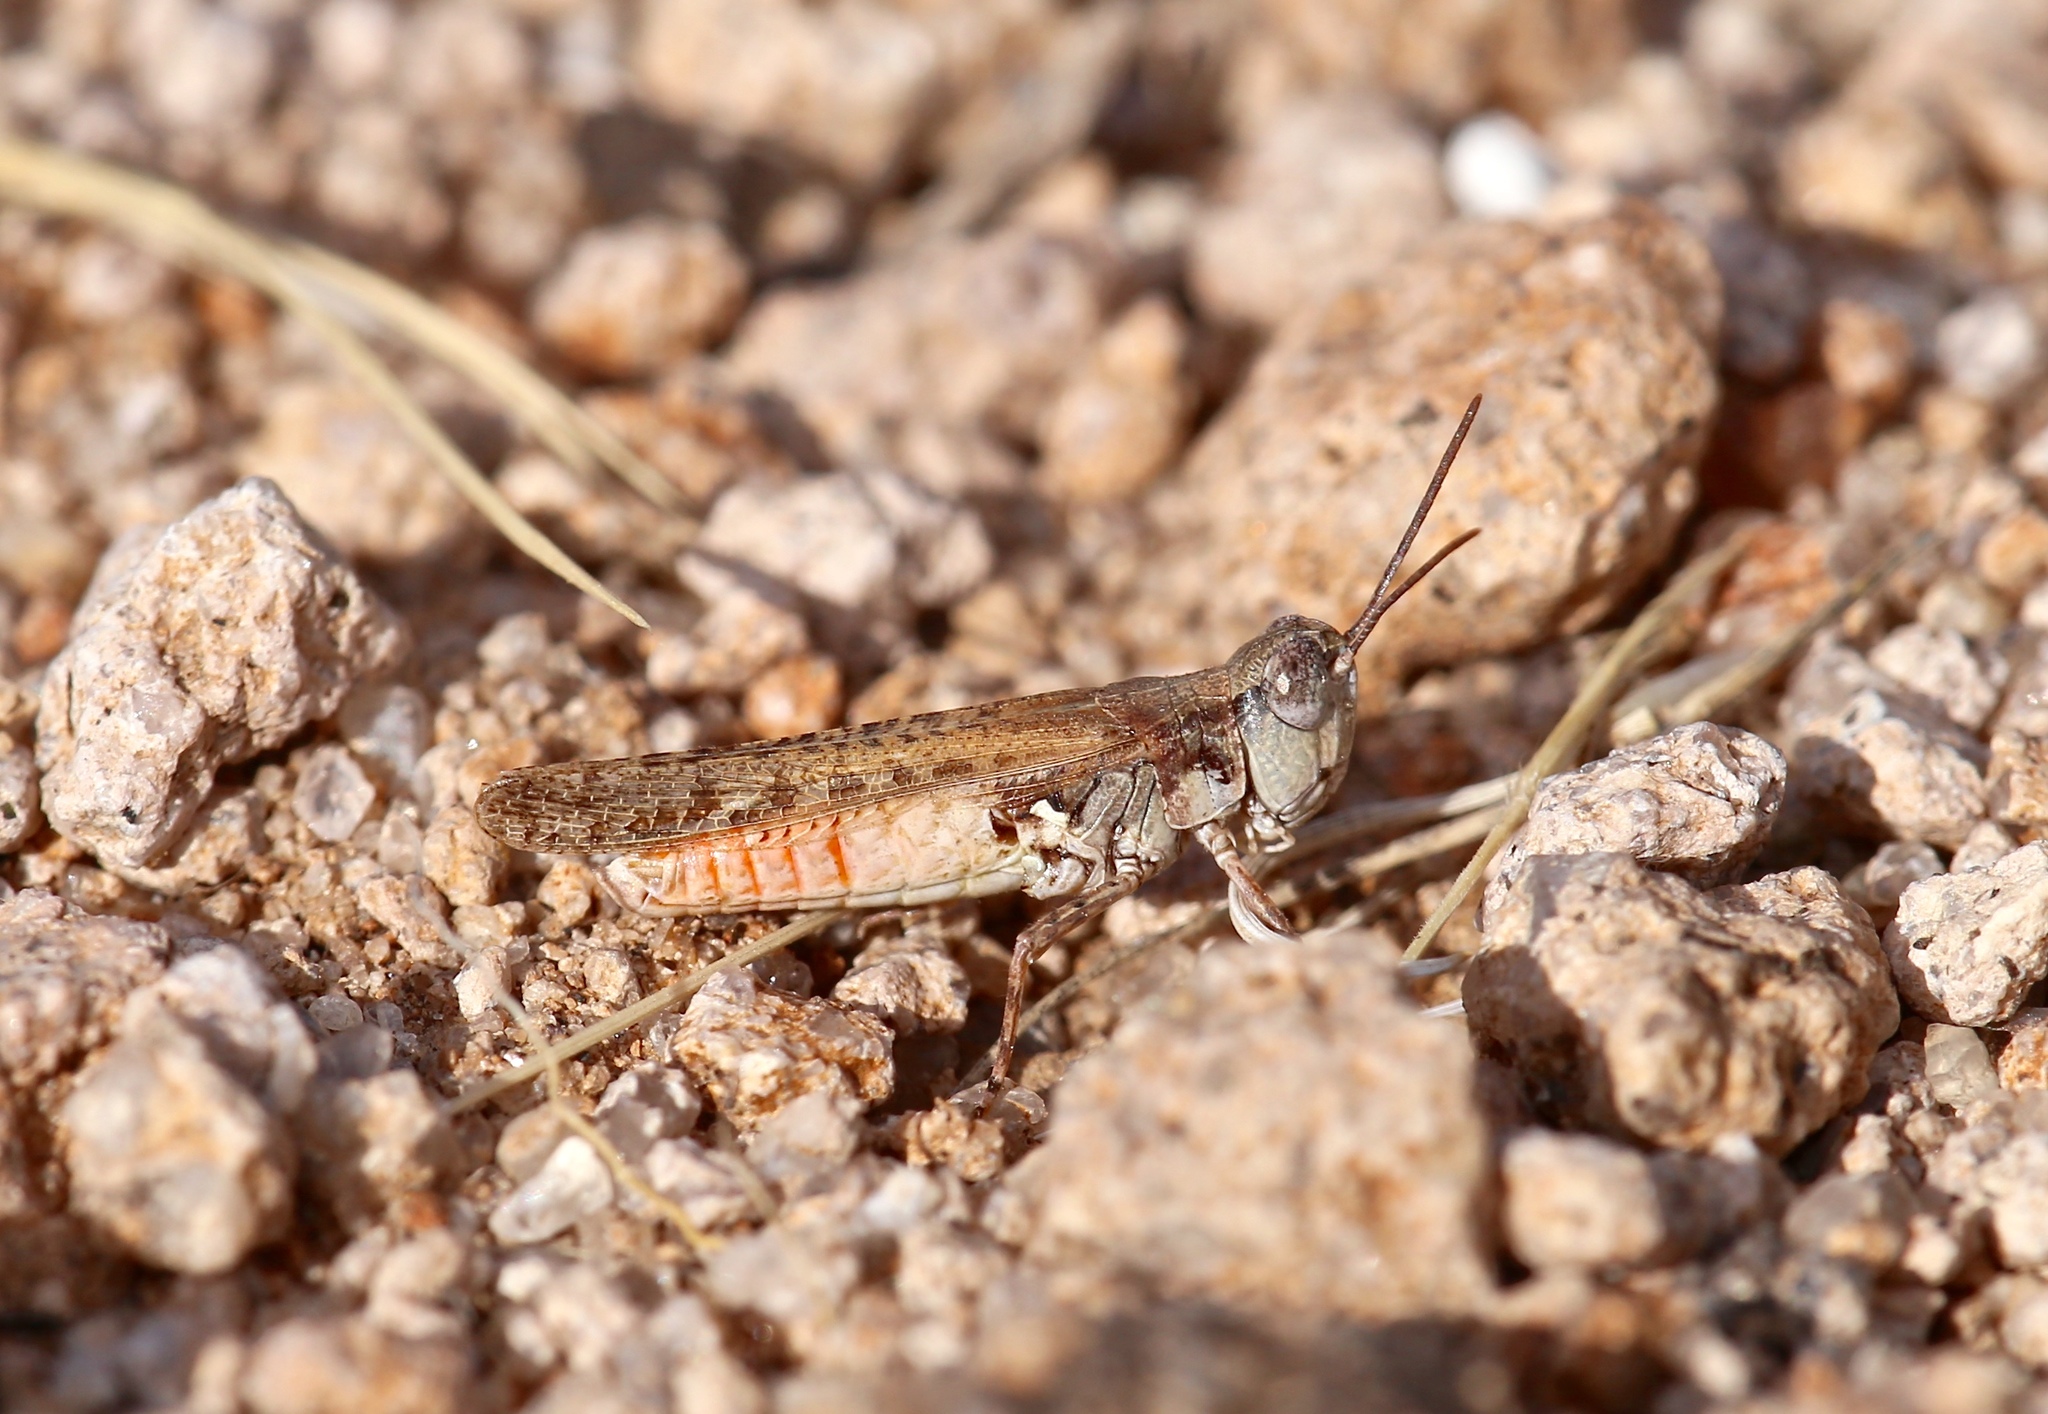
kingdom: Animalia
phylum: Arthropoda
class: Insecta
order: Orthoptera
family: Acrididae
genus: Psoloessa
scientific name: Psoloessa texana
